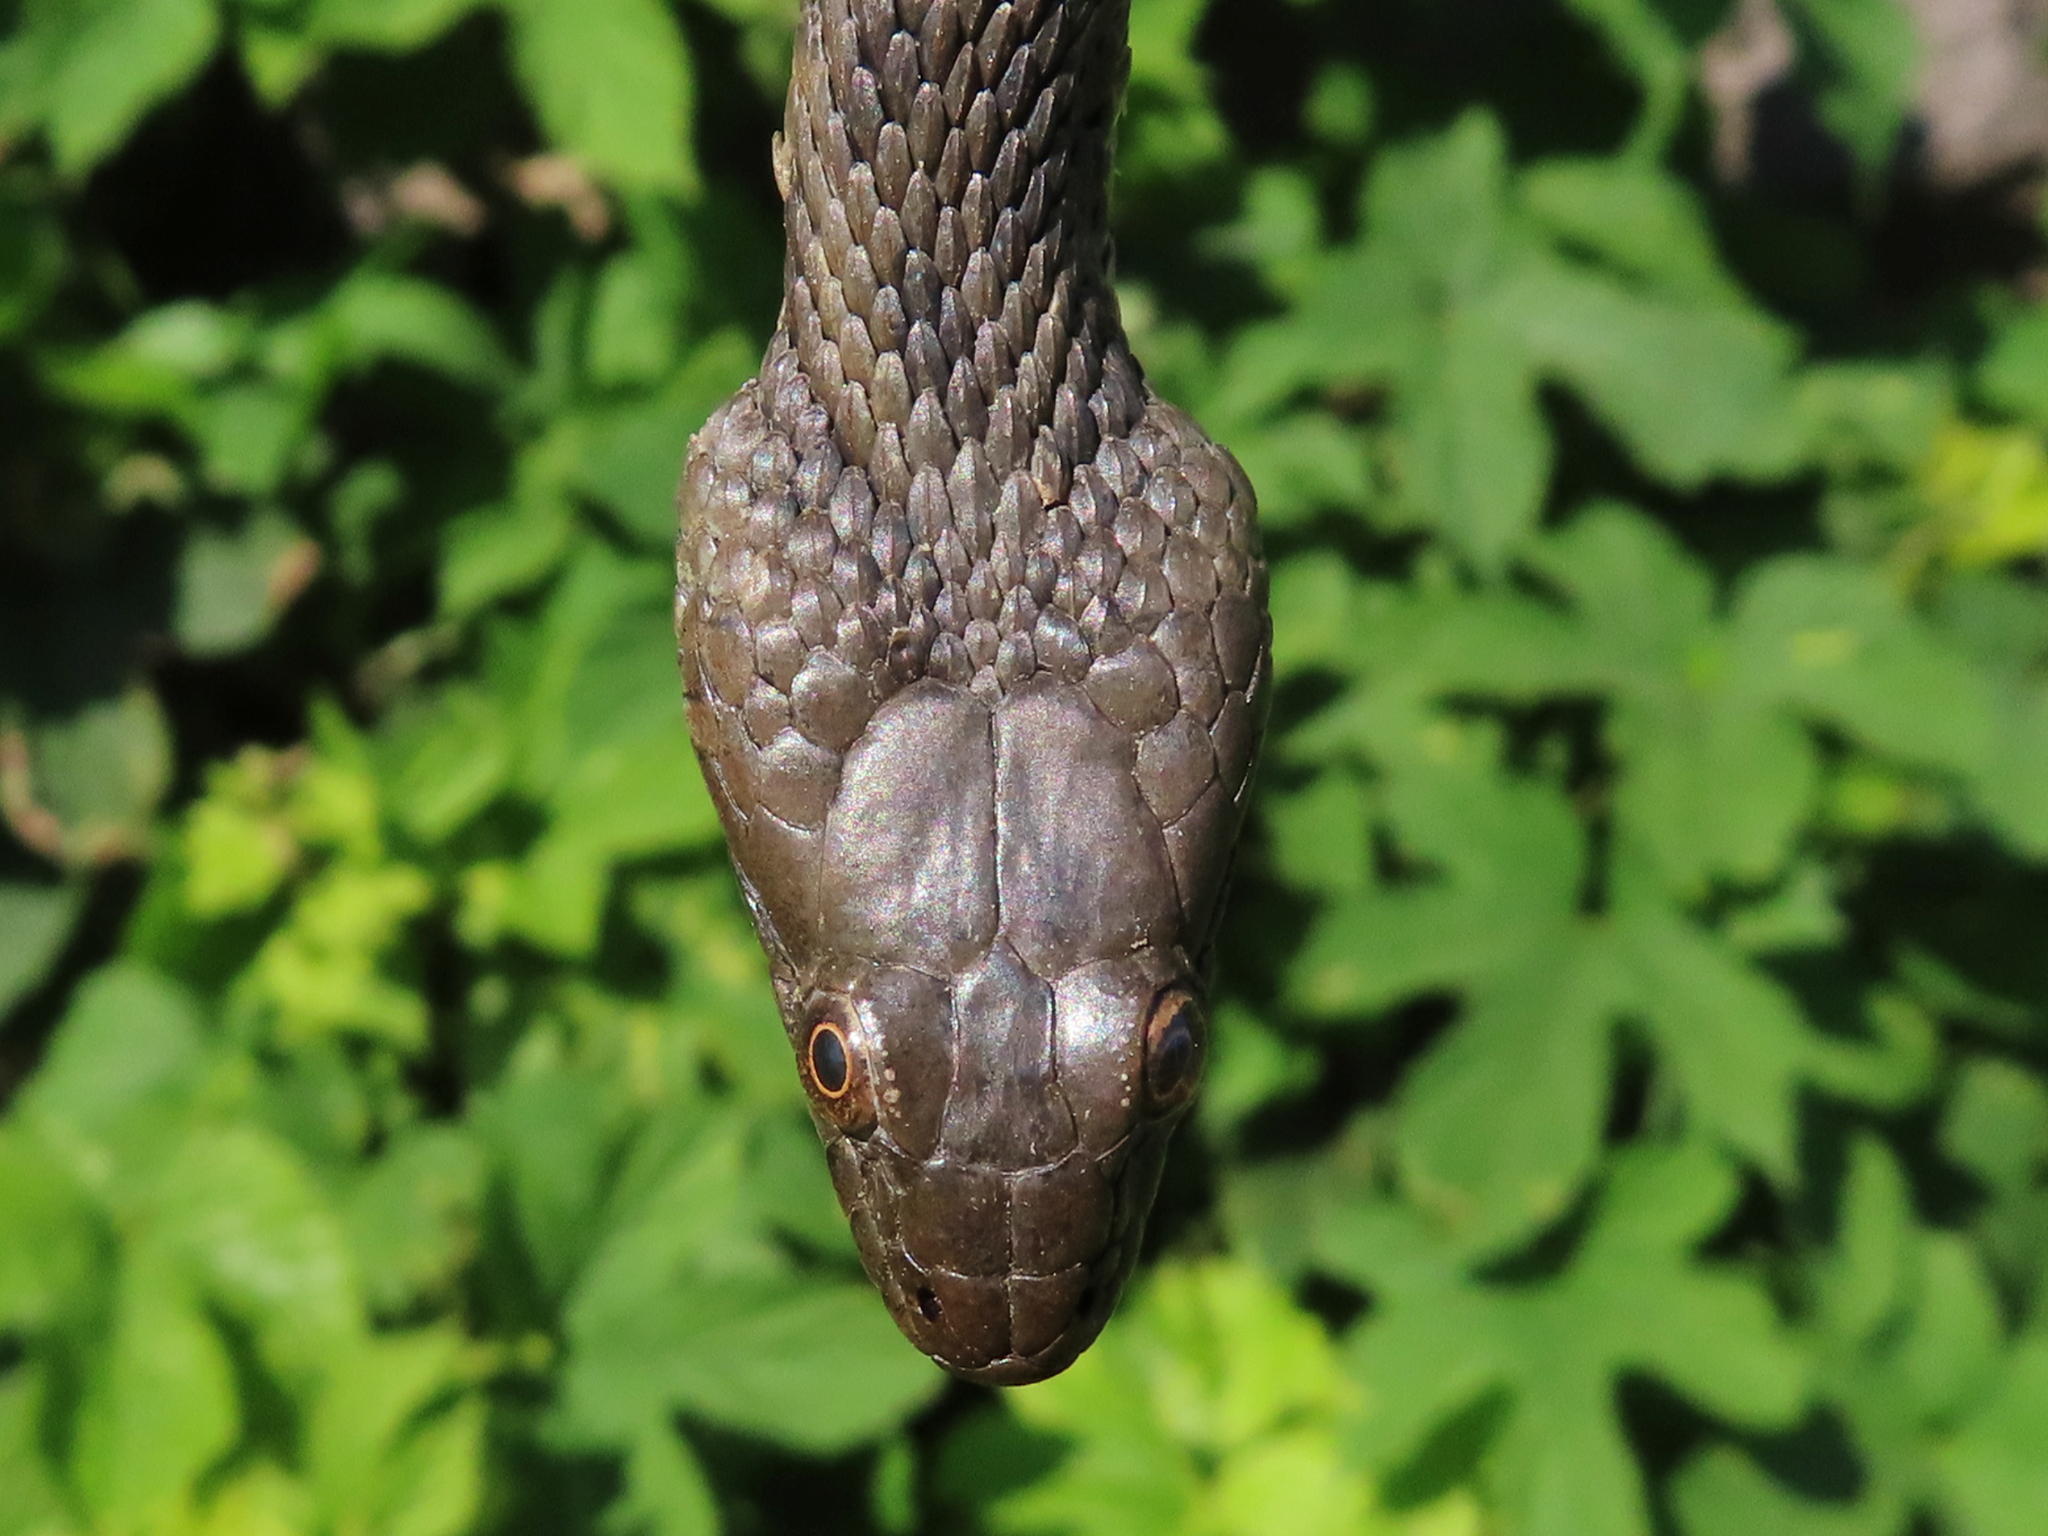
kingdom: Animalia
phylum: Chordata
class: Squamata
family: Colubridae
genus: Natrix
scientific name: Natrix tessellata
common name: Dice snake
